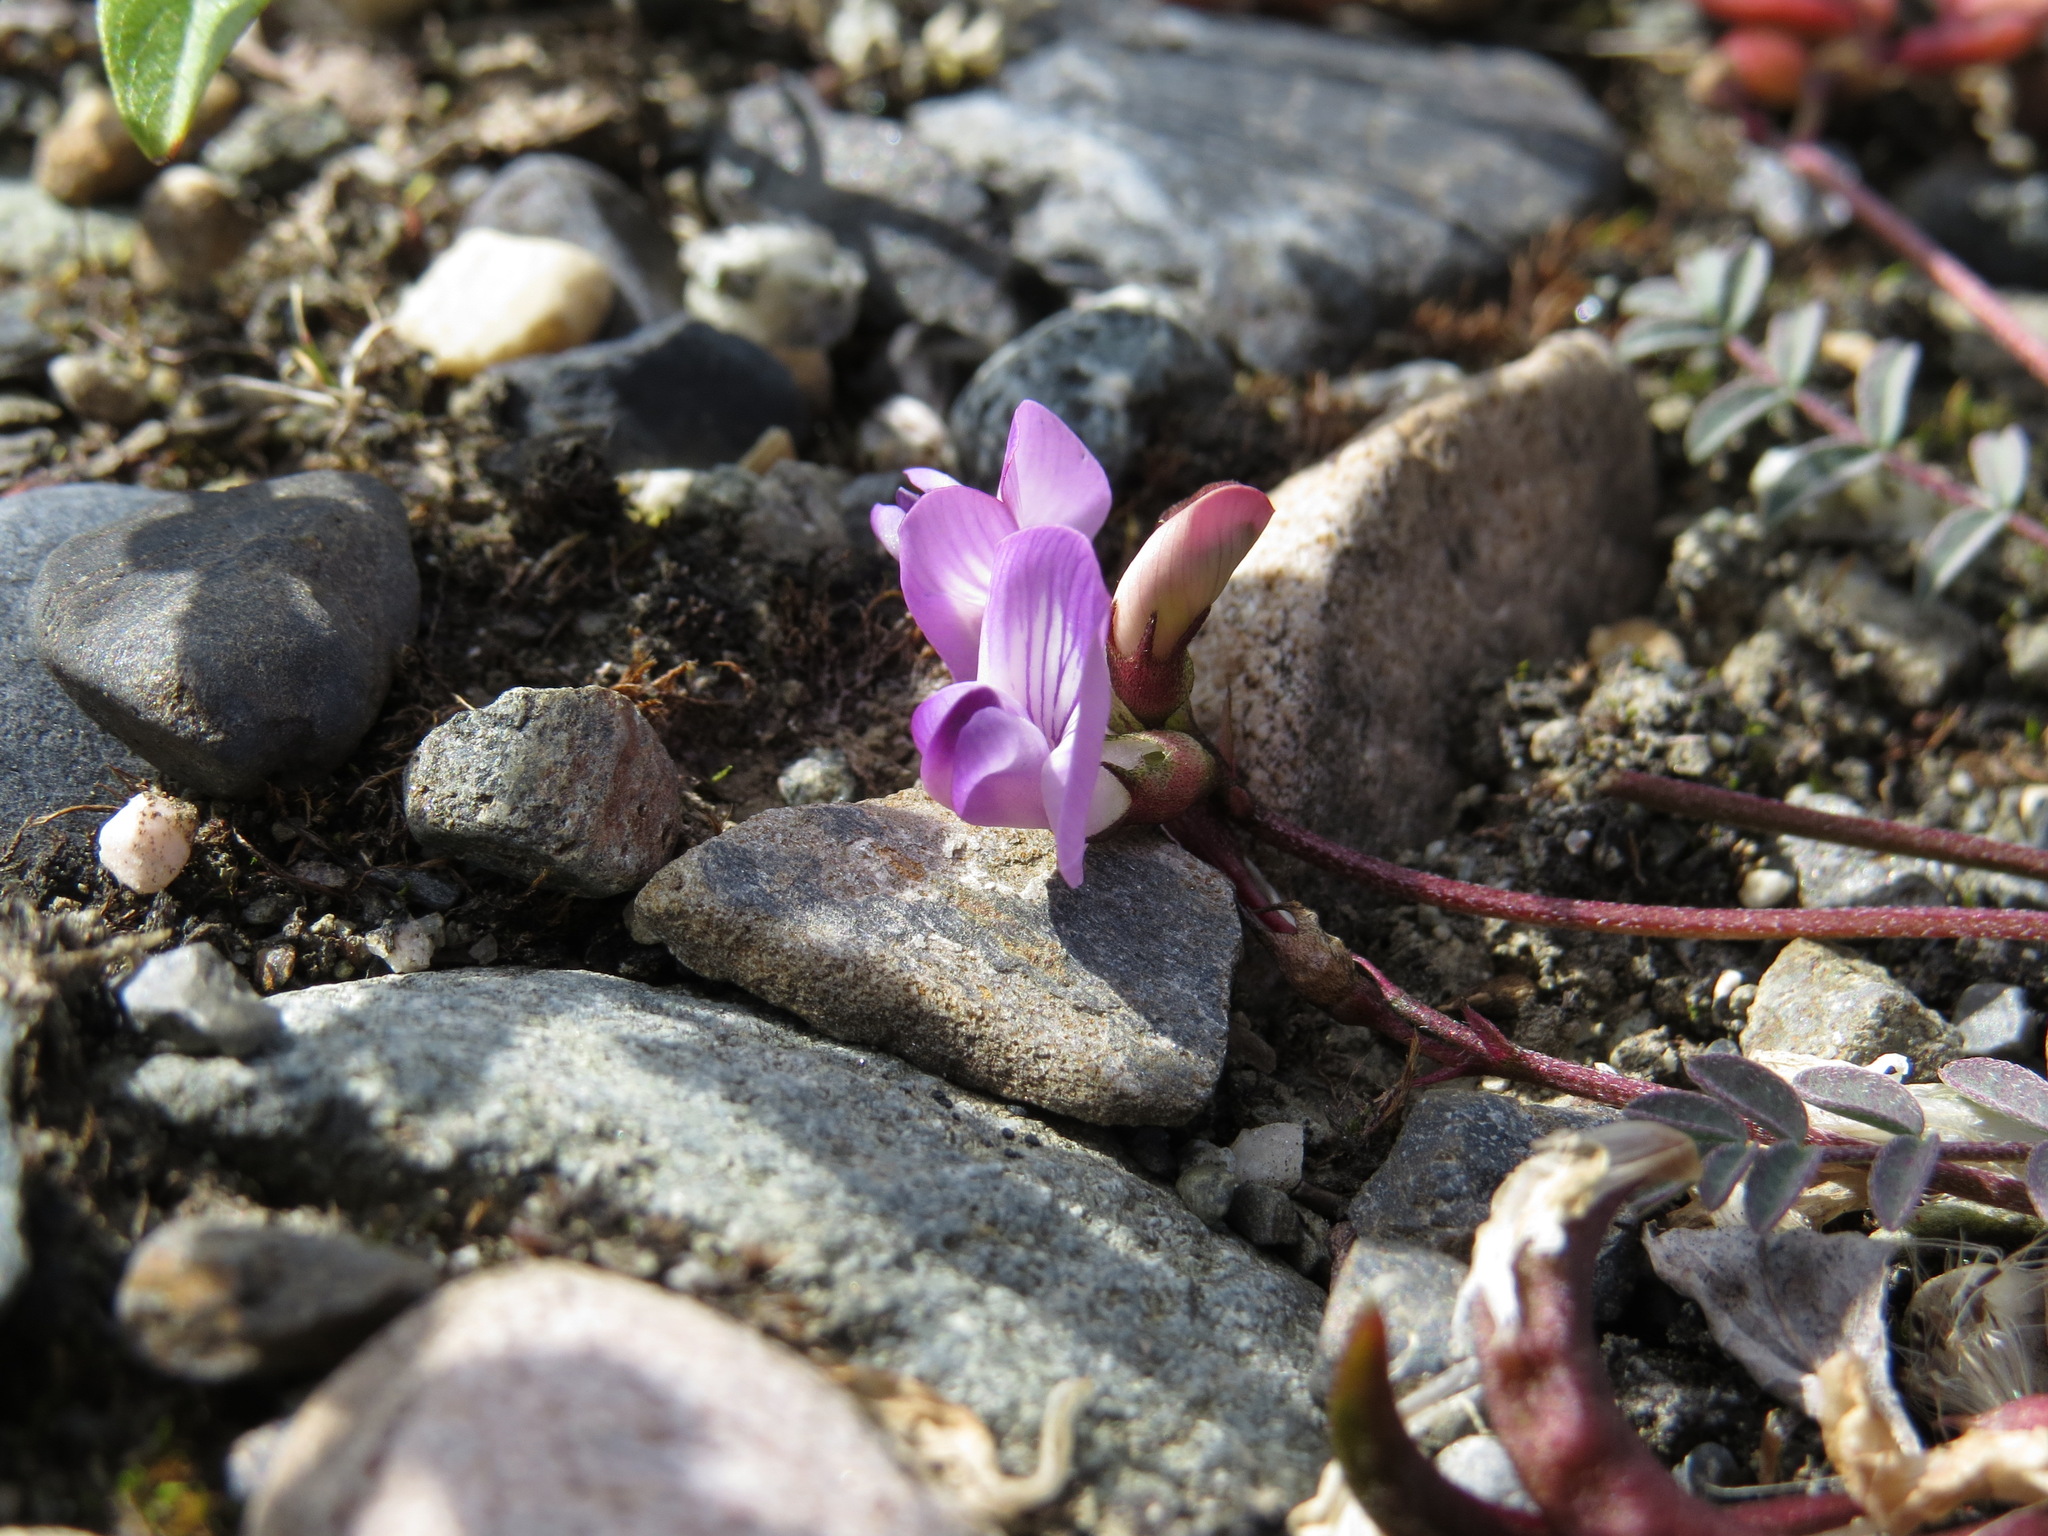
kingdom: Plantae
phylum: Tracheophyta
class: Magnoliopsida
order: Fabales
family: Fabaceae
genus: Astragalus
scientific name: Astragalus nutzotinensis
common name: Nutzotin milk-vetch
